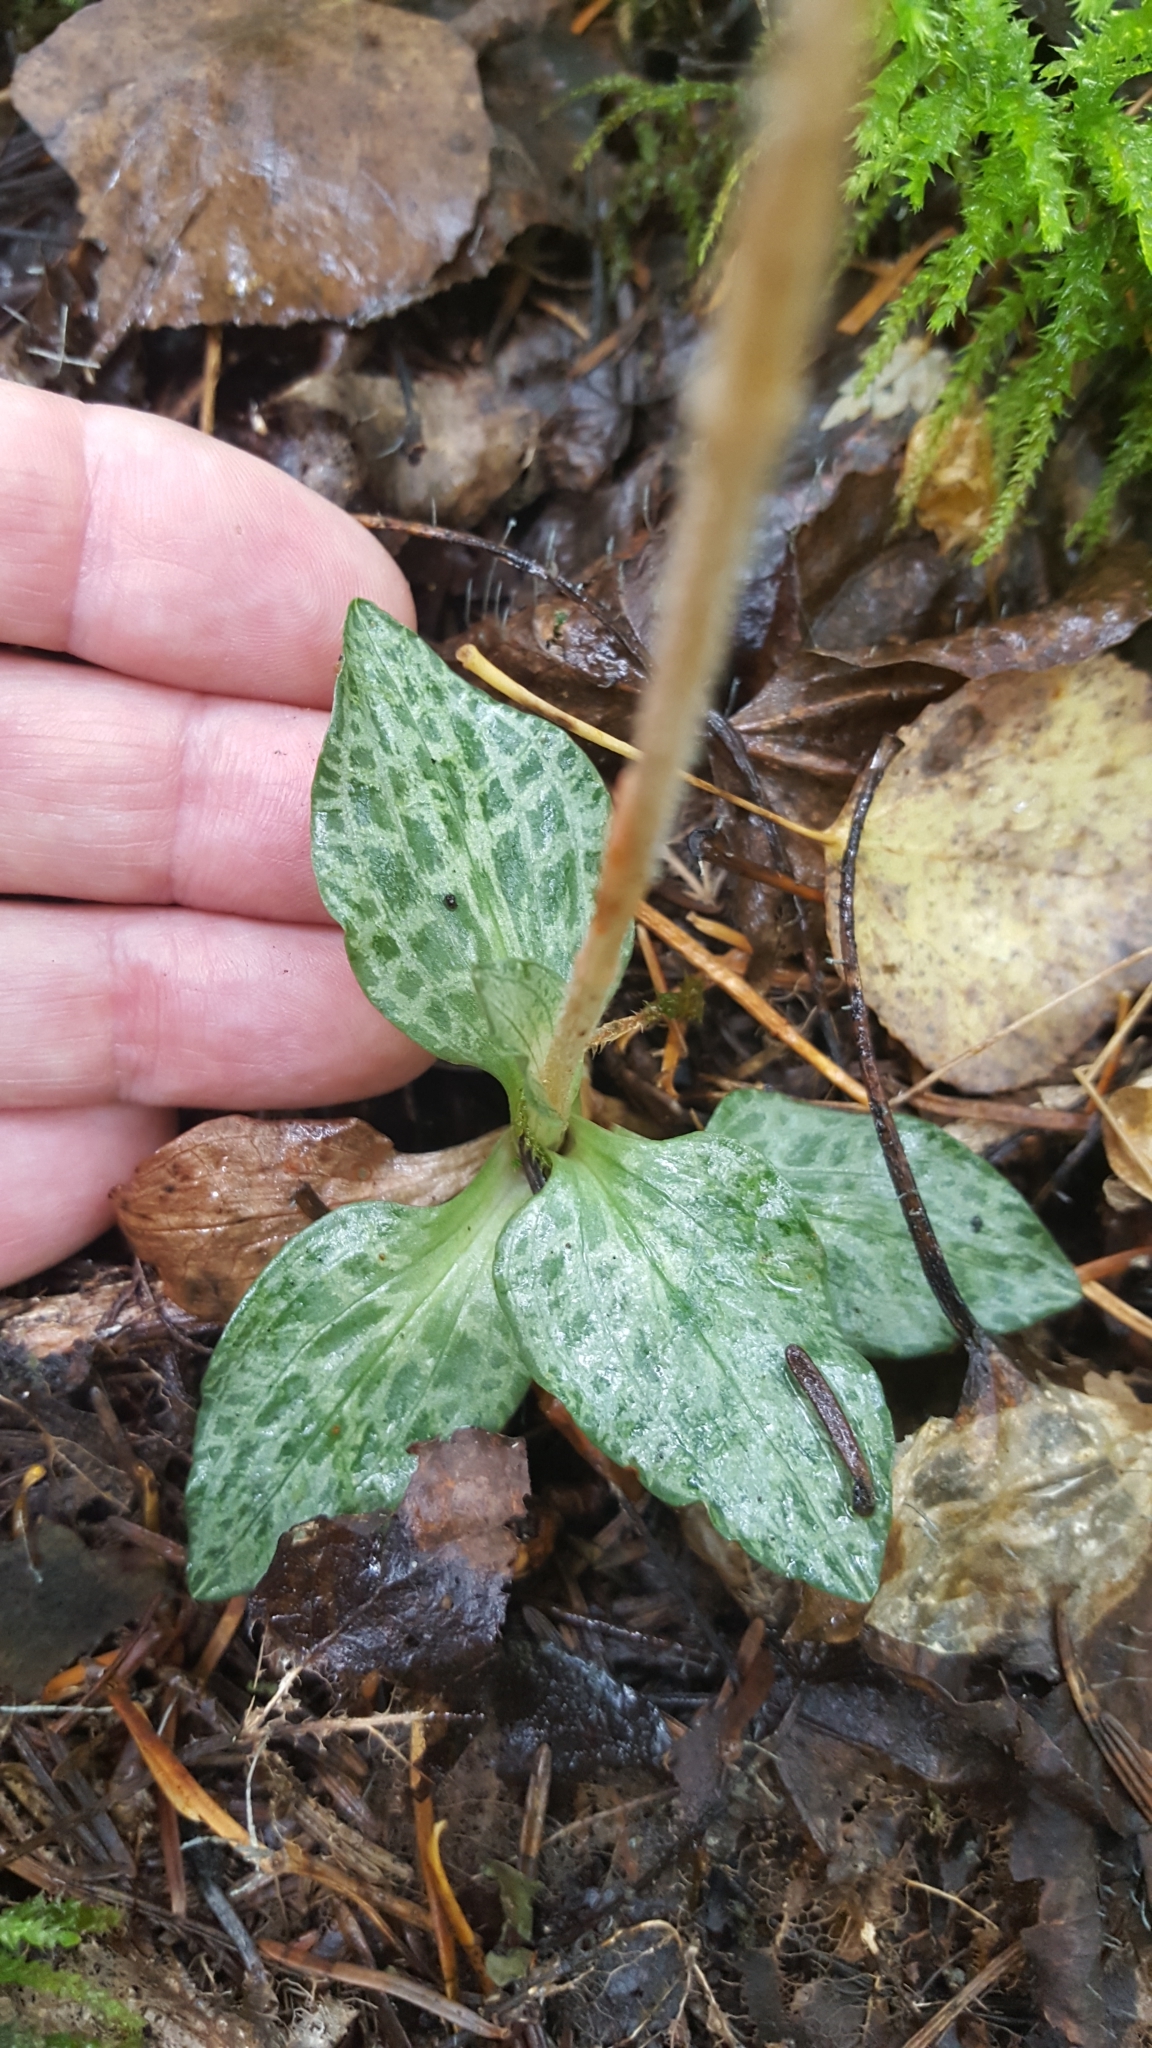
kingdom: Plantae
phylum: Tracheophyta
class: Liliopsida
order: Asparagales
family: Orchidaceae
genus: Goodyera
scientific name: Goodyera repens
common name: Creeping lady's-tresses
